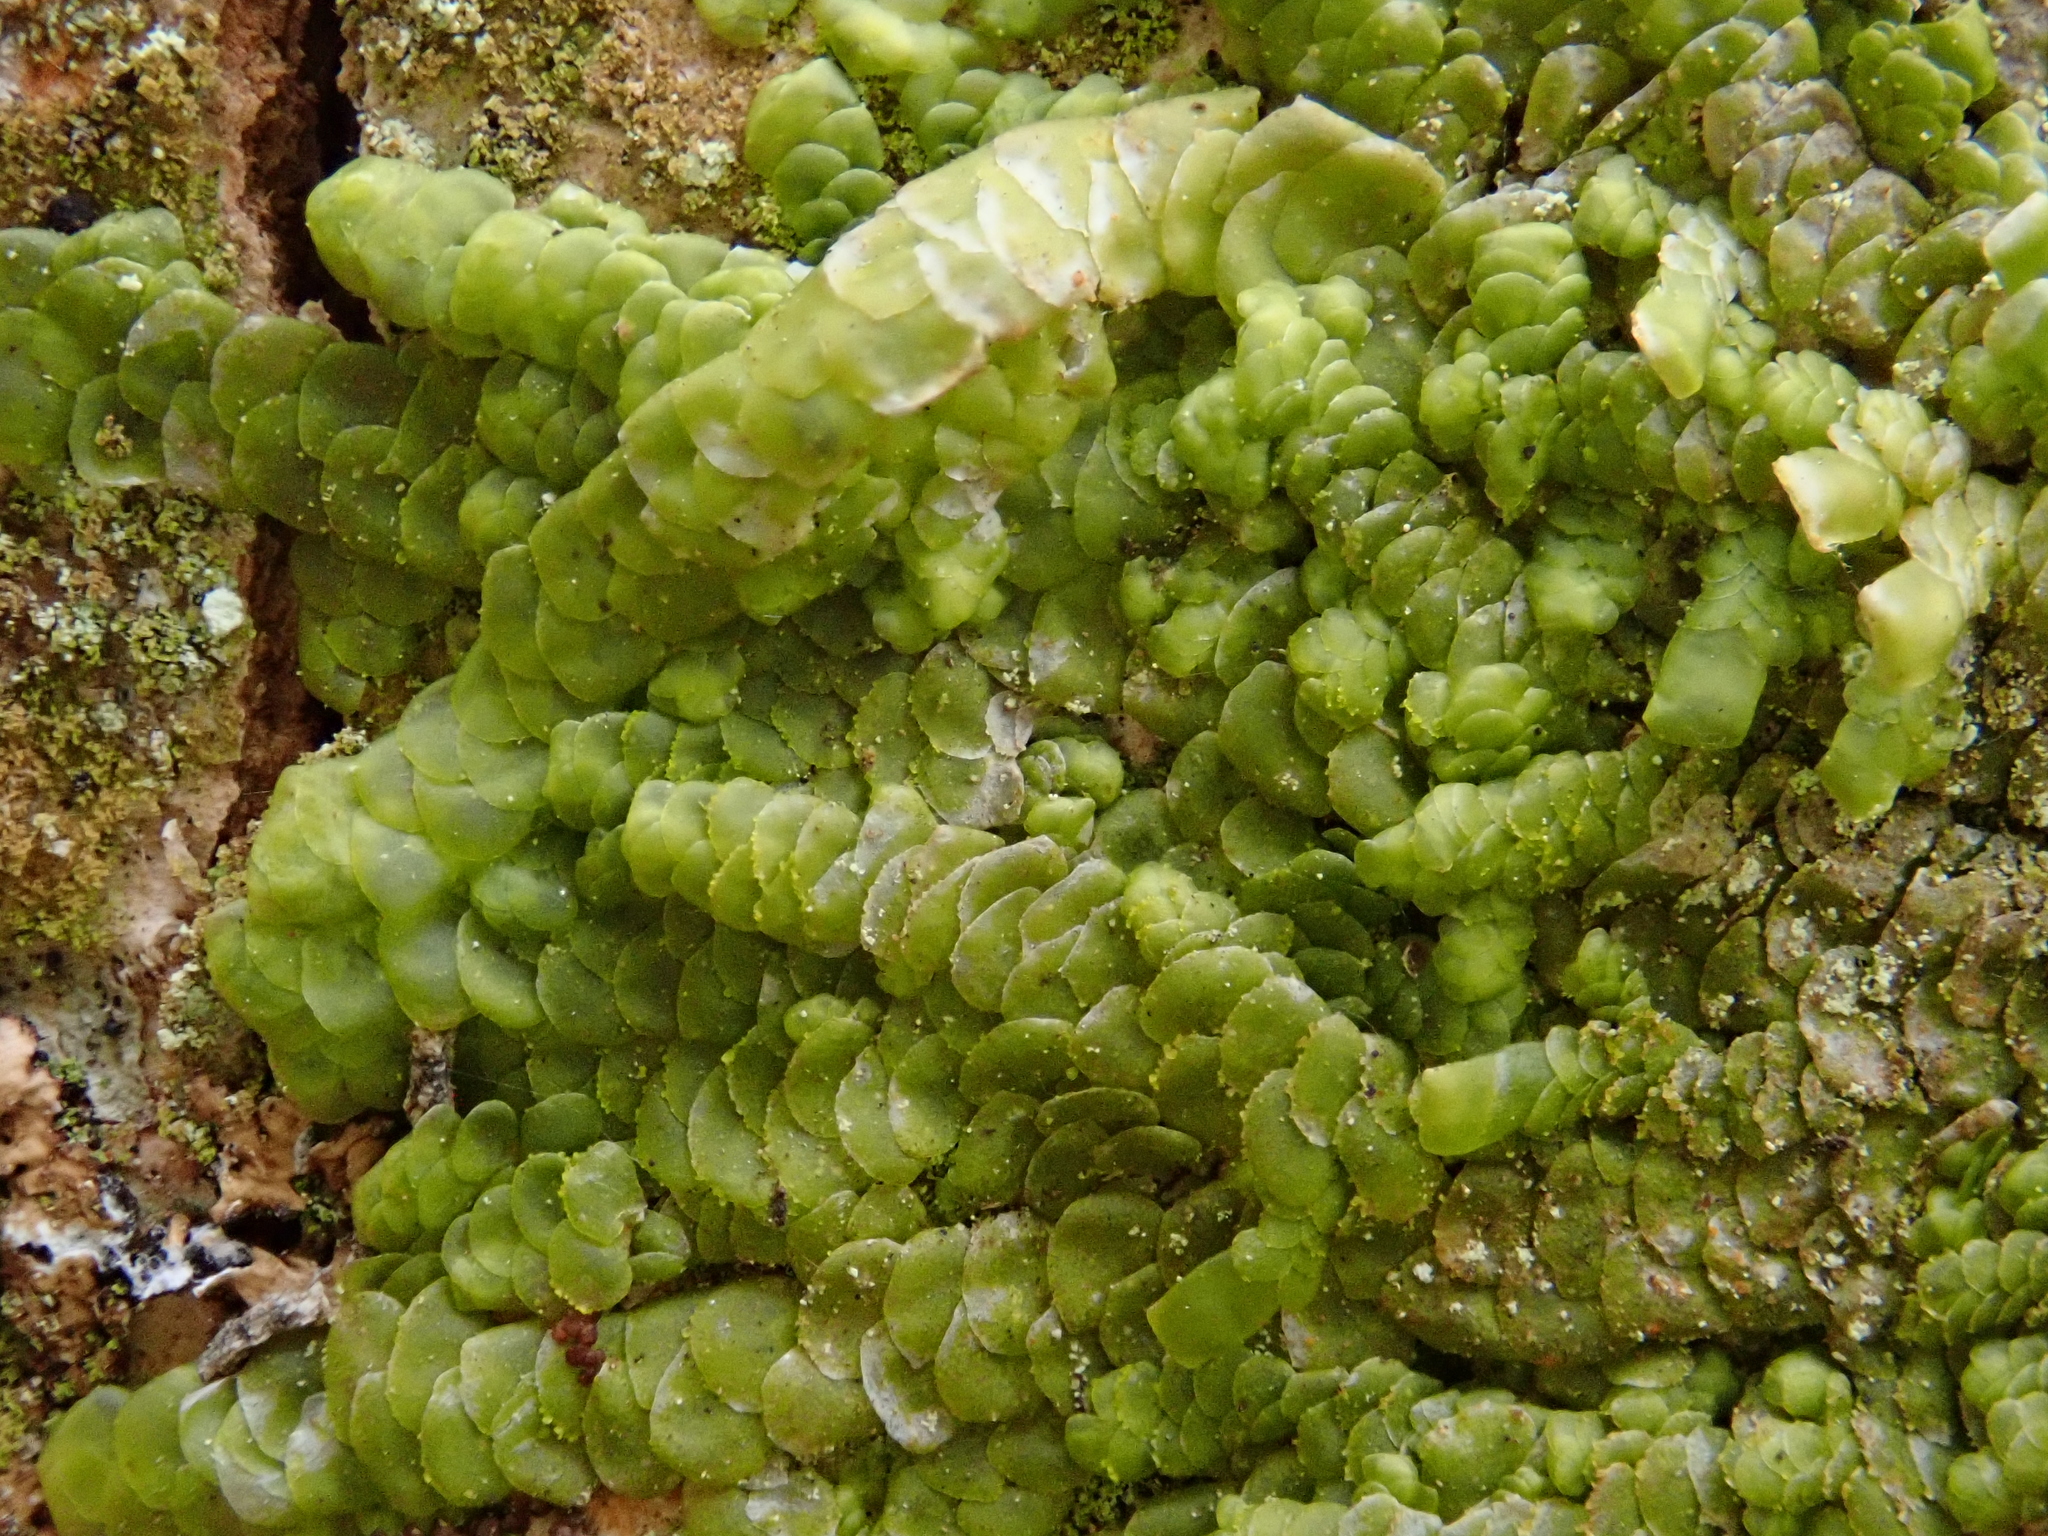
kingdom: Plantae
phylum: Marchantiophyta
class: Jungermanniopsida
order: Porellales
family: Radulaceae
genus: Radula
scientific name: Radula complanata
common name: Flat-leaved scalewort
